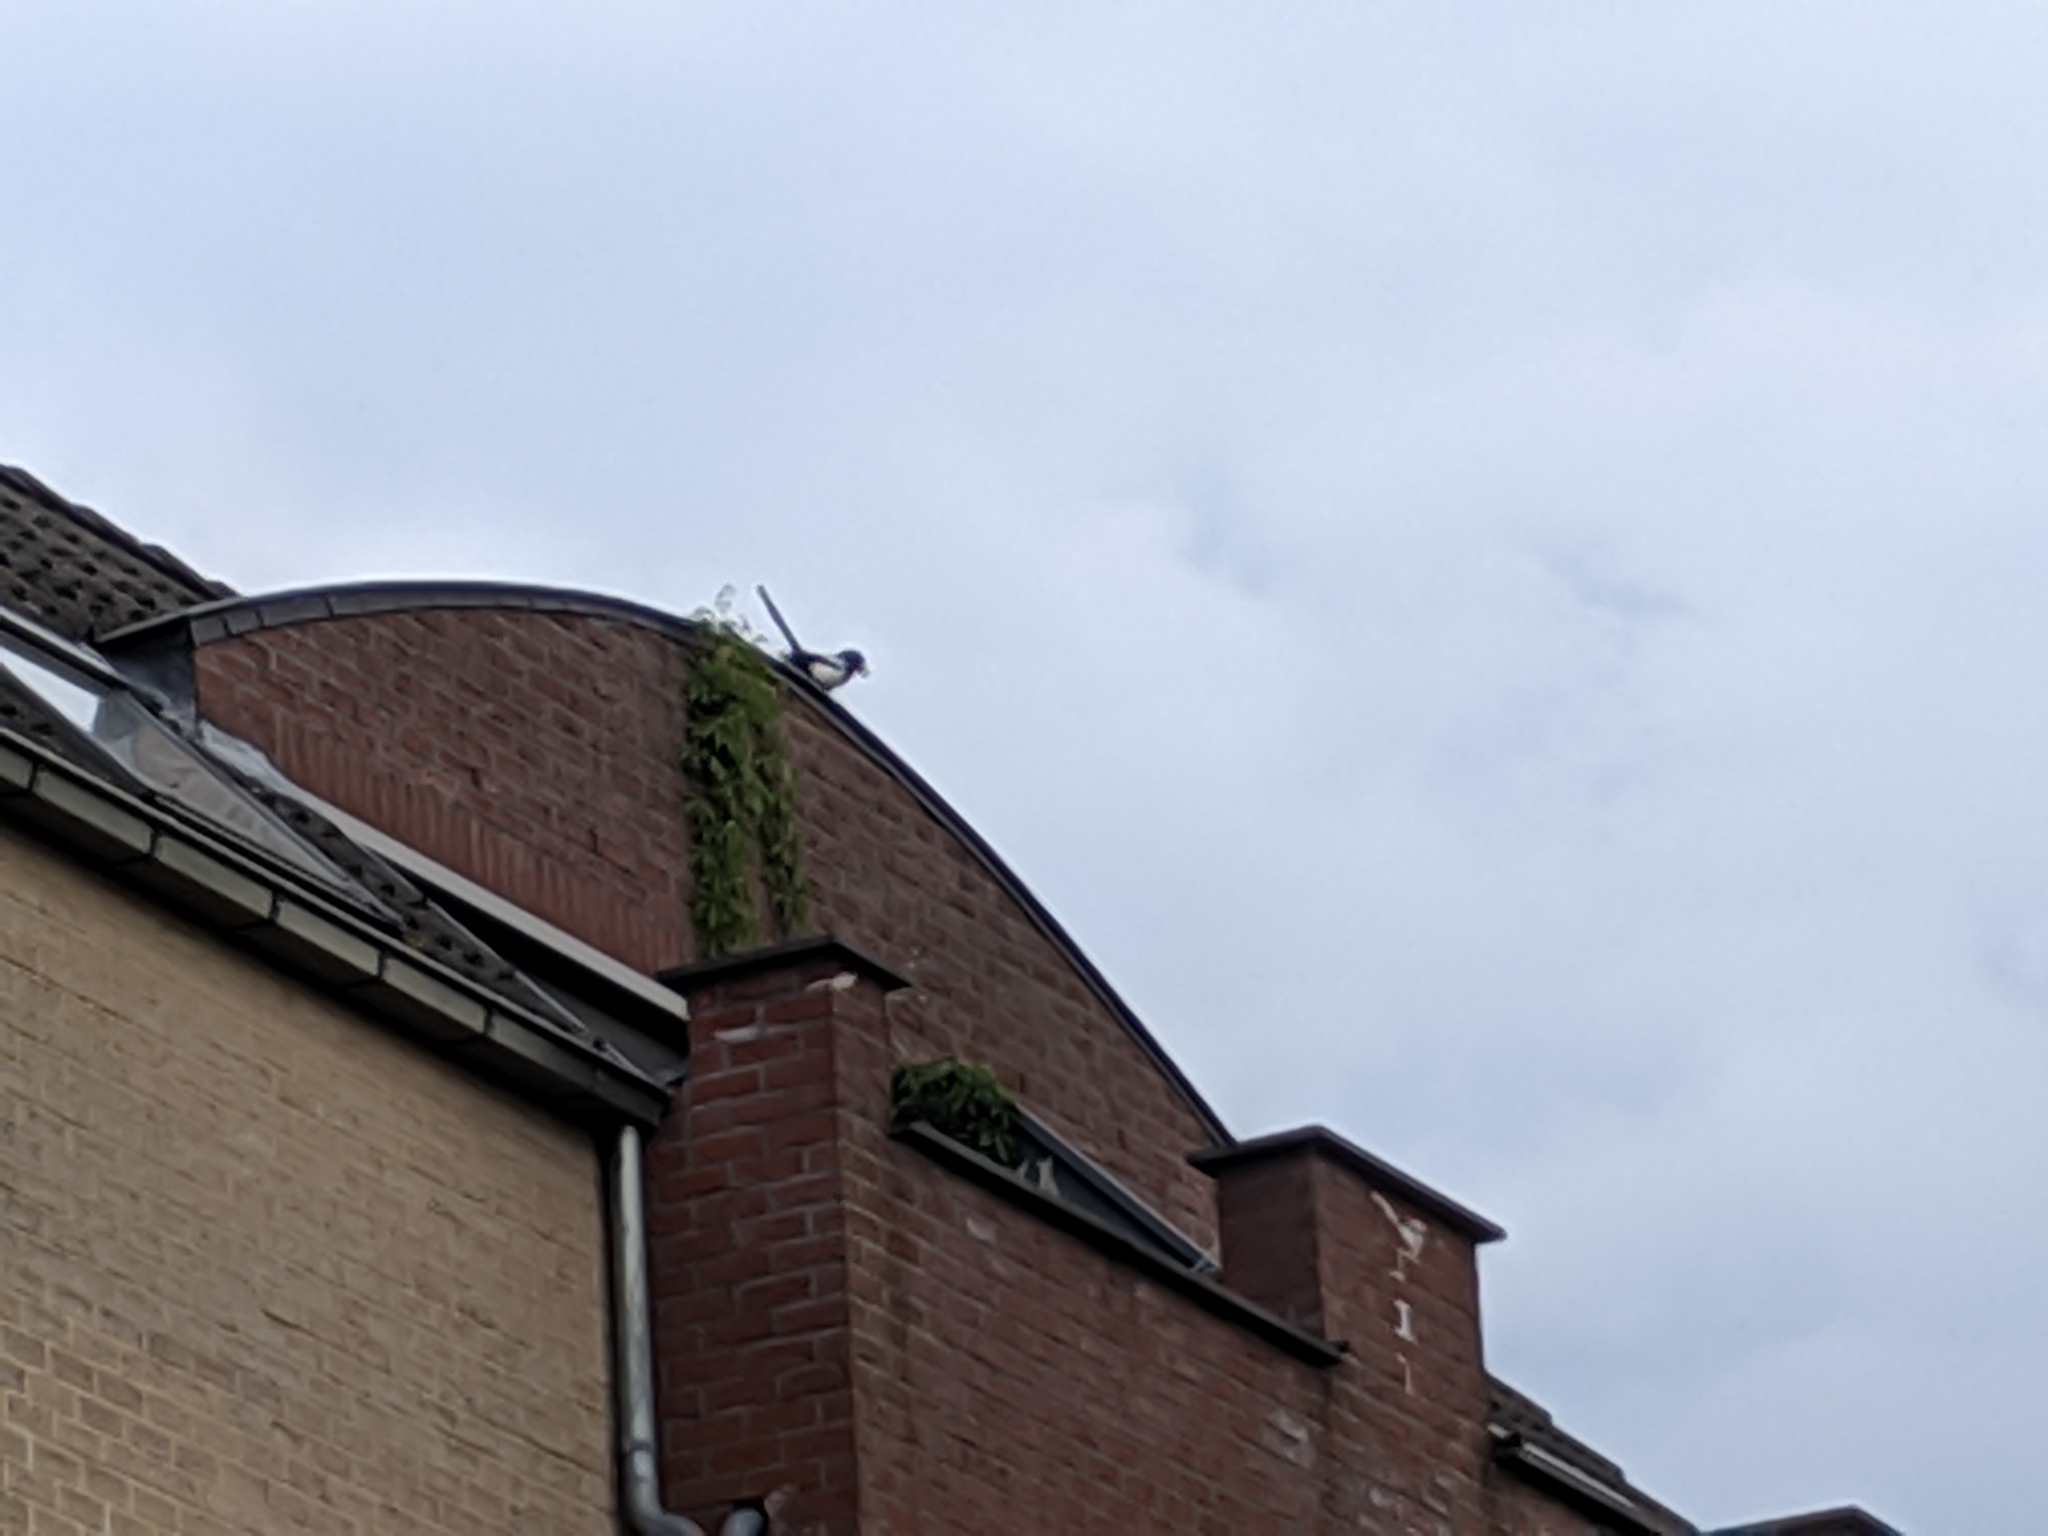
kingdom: Animalia
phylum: Chordata
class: Aves
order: Passeriformes
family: Corvidae
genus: Pica
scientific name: Pica pica
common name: Eurasian magpie
